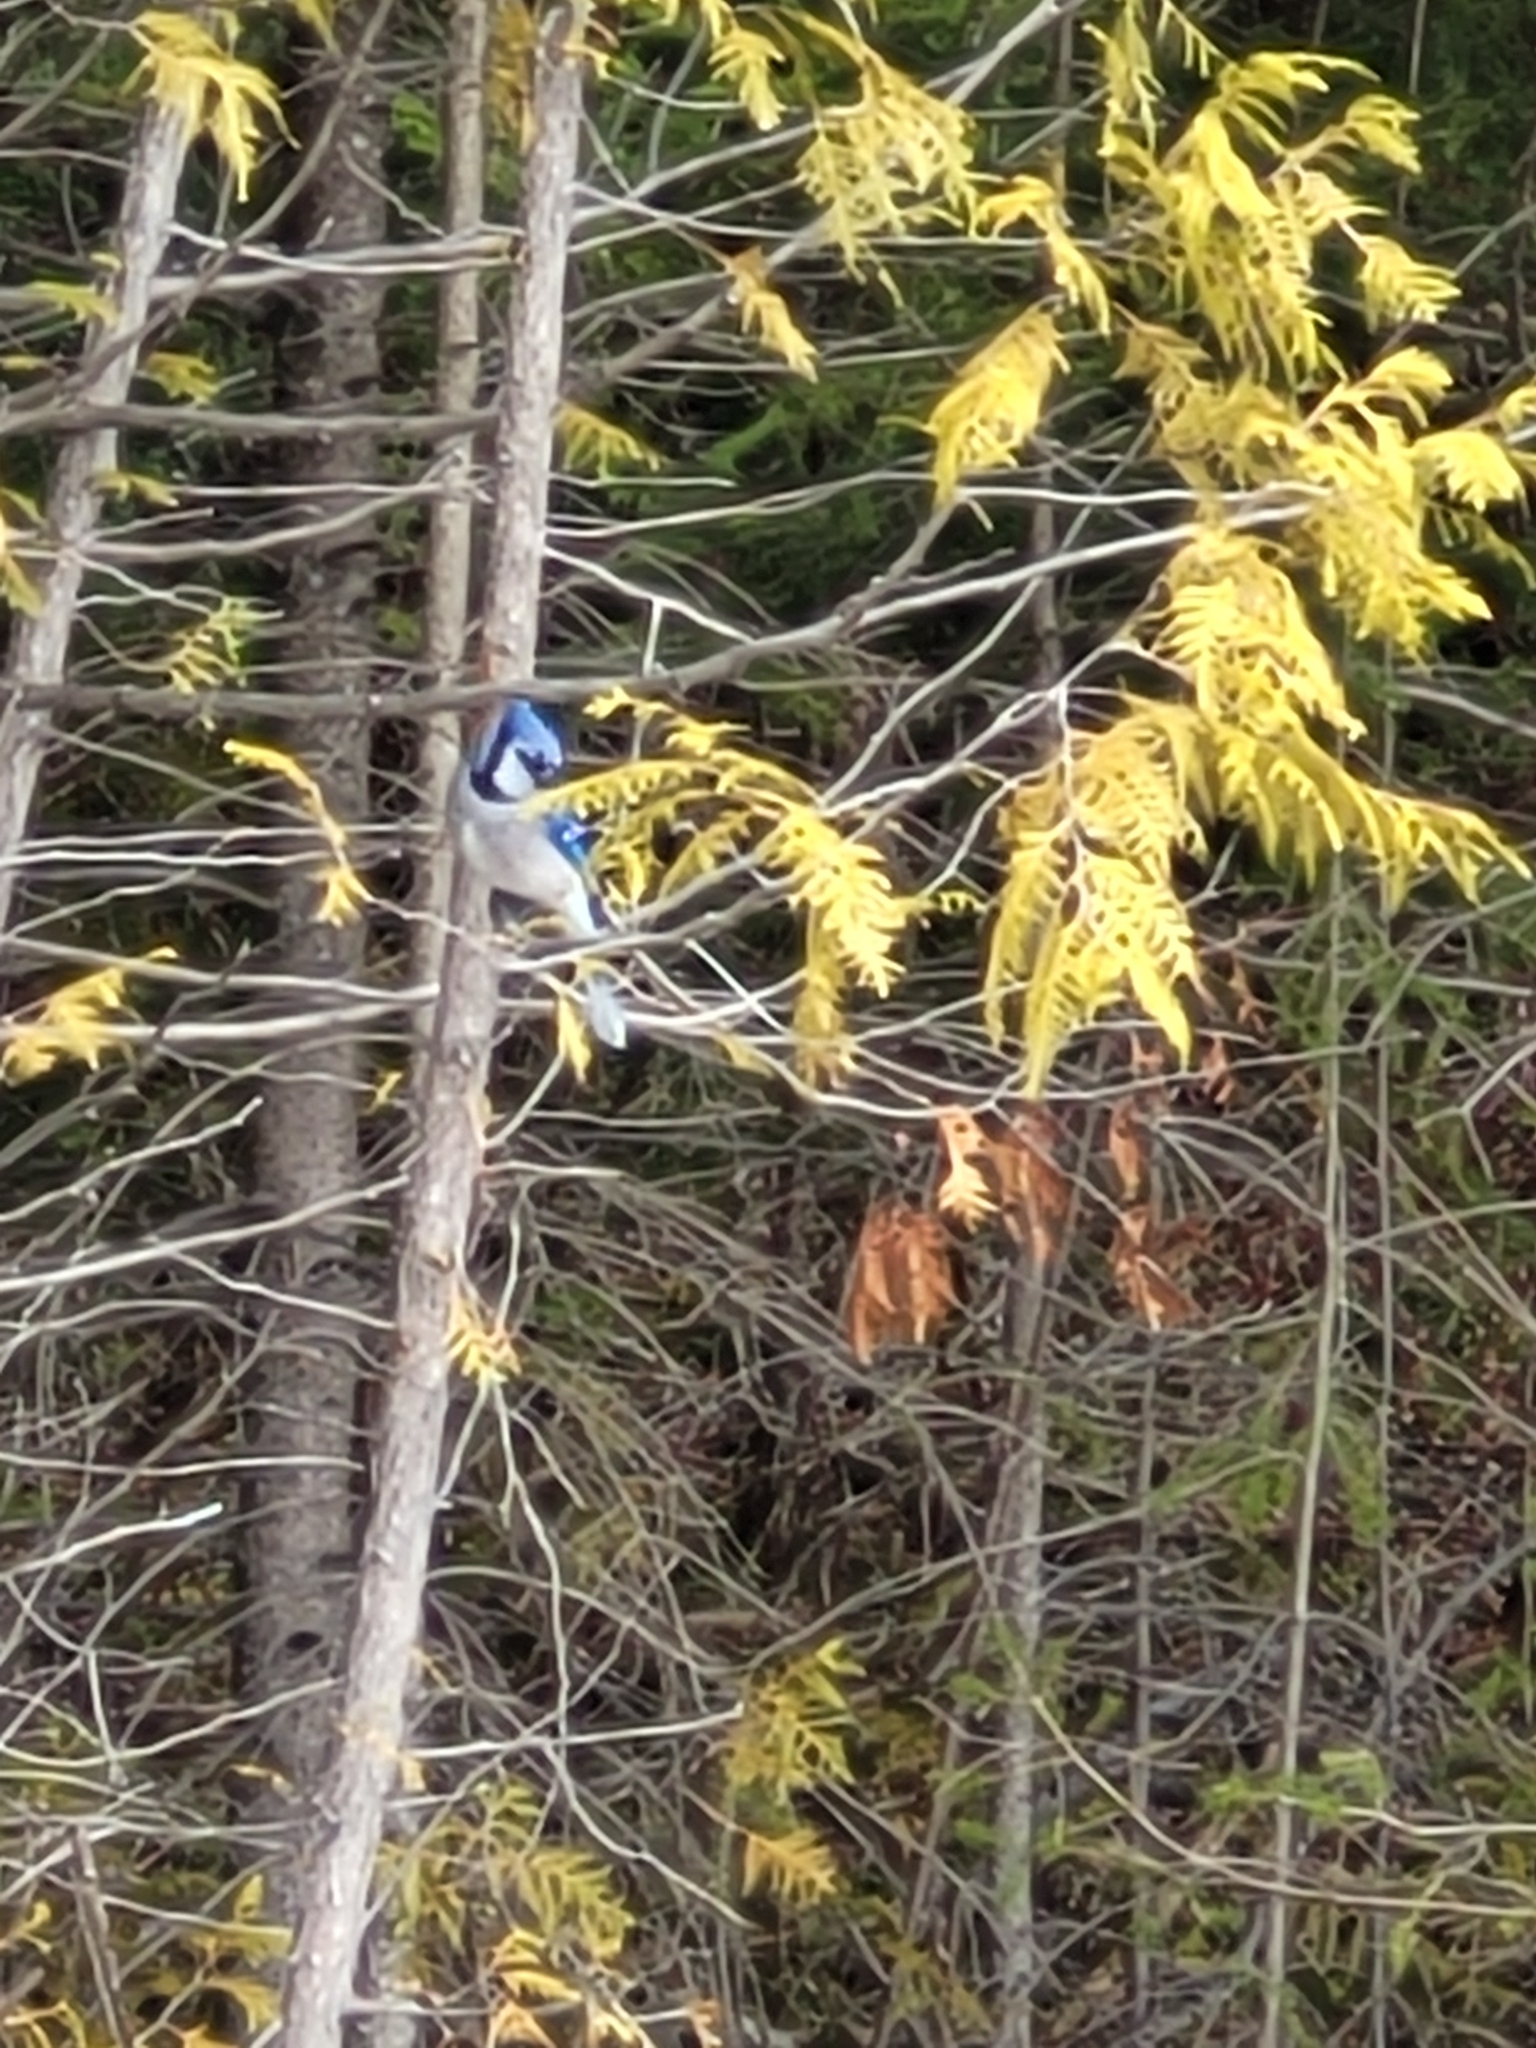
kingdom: Animalia
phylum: Chordata
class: Aves
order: Passeriformes
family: Corvidae
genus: Cyanocitta
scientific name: Cyanocitta cristata
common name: Blue jay
